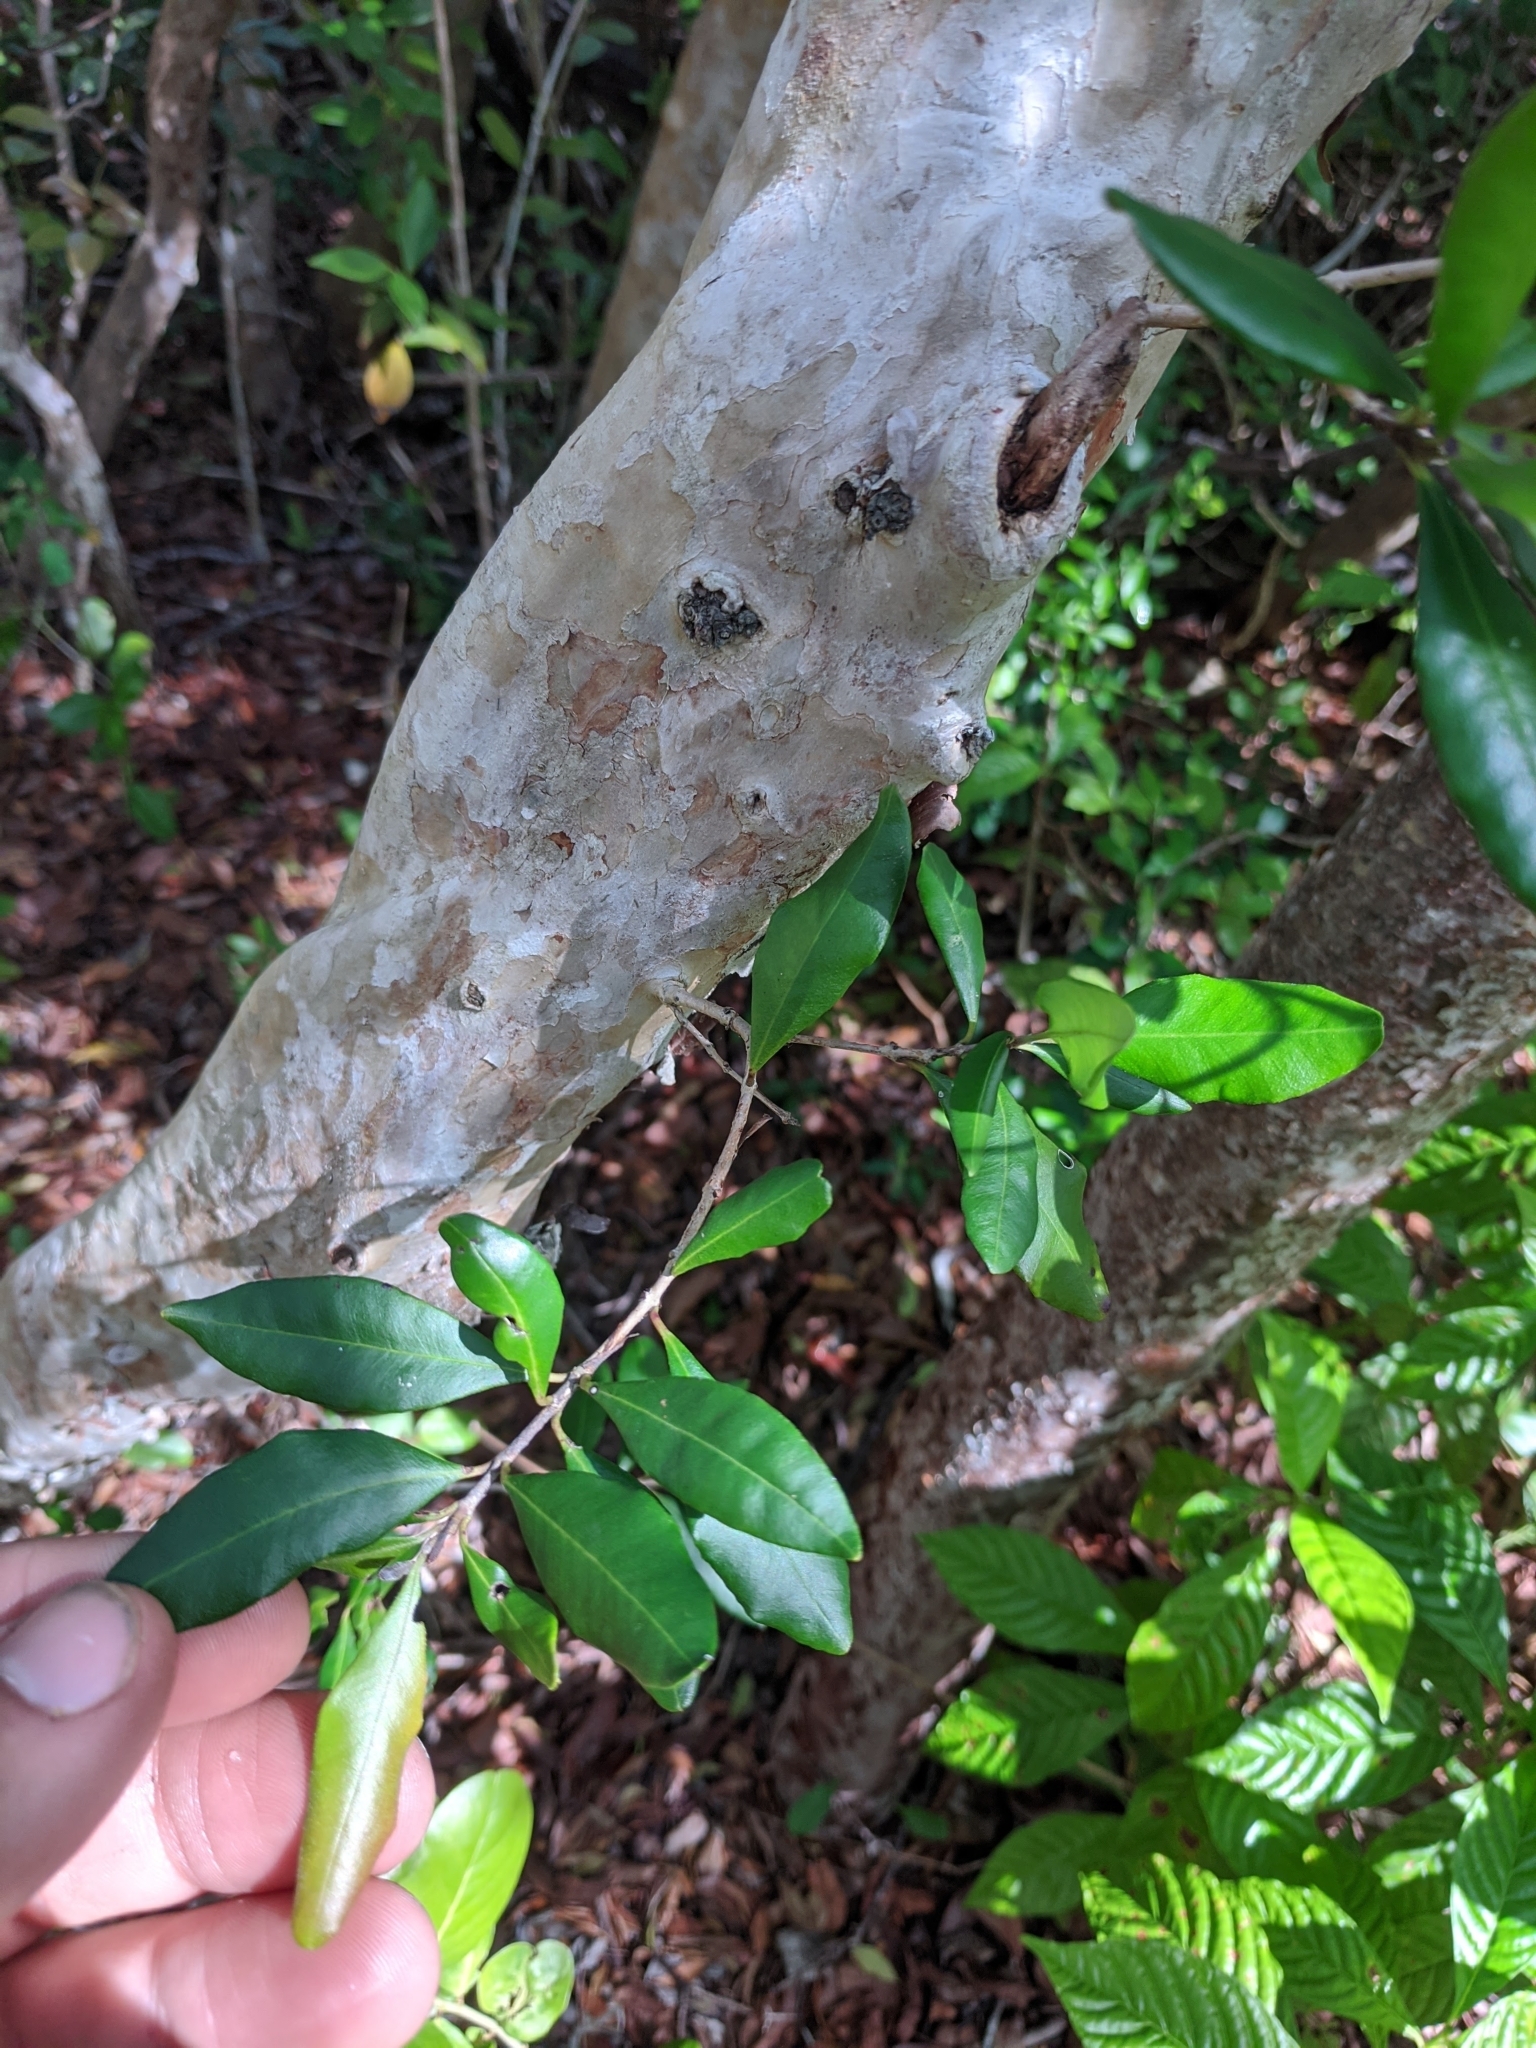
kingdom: Plantae
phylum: Tracheophyta
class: Magnoliopsida
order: Myrtales
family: Myrtaceae
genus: Myrcianthes
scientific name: Myrcianthes fragrans
